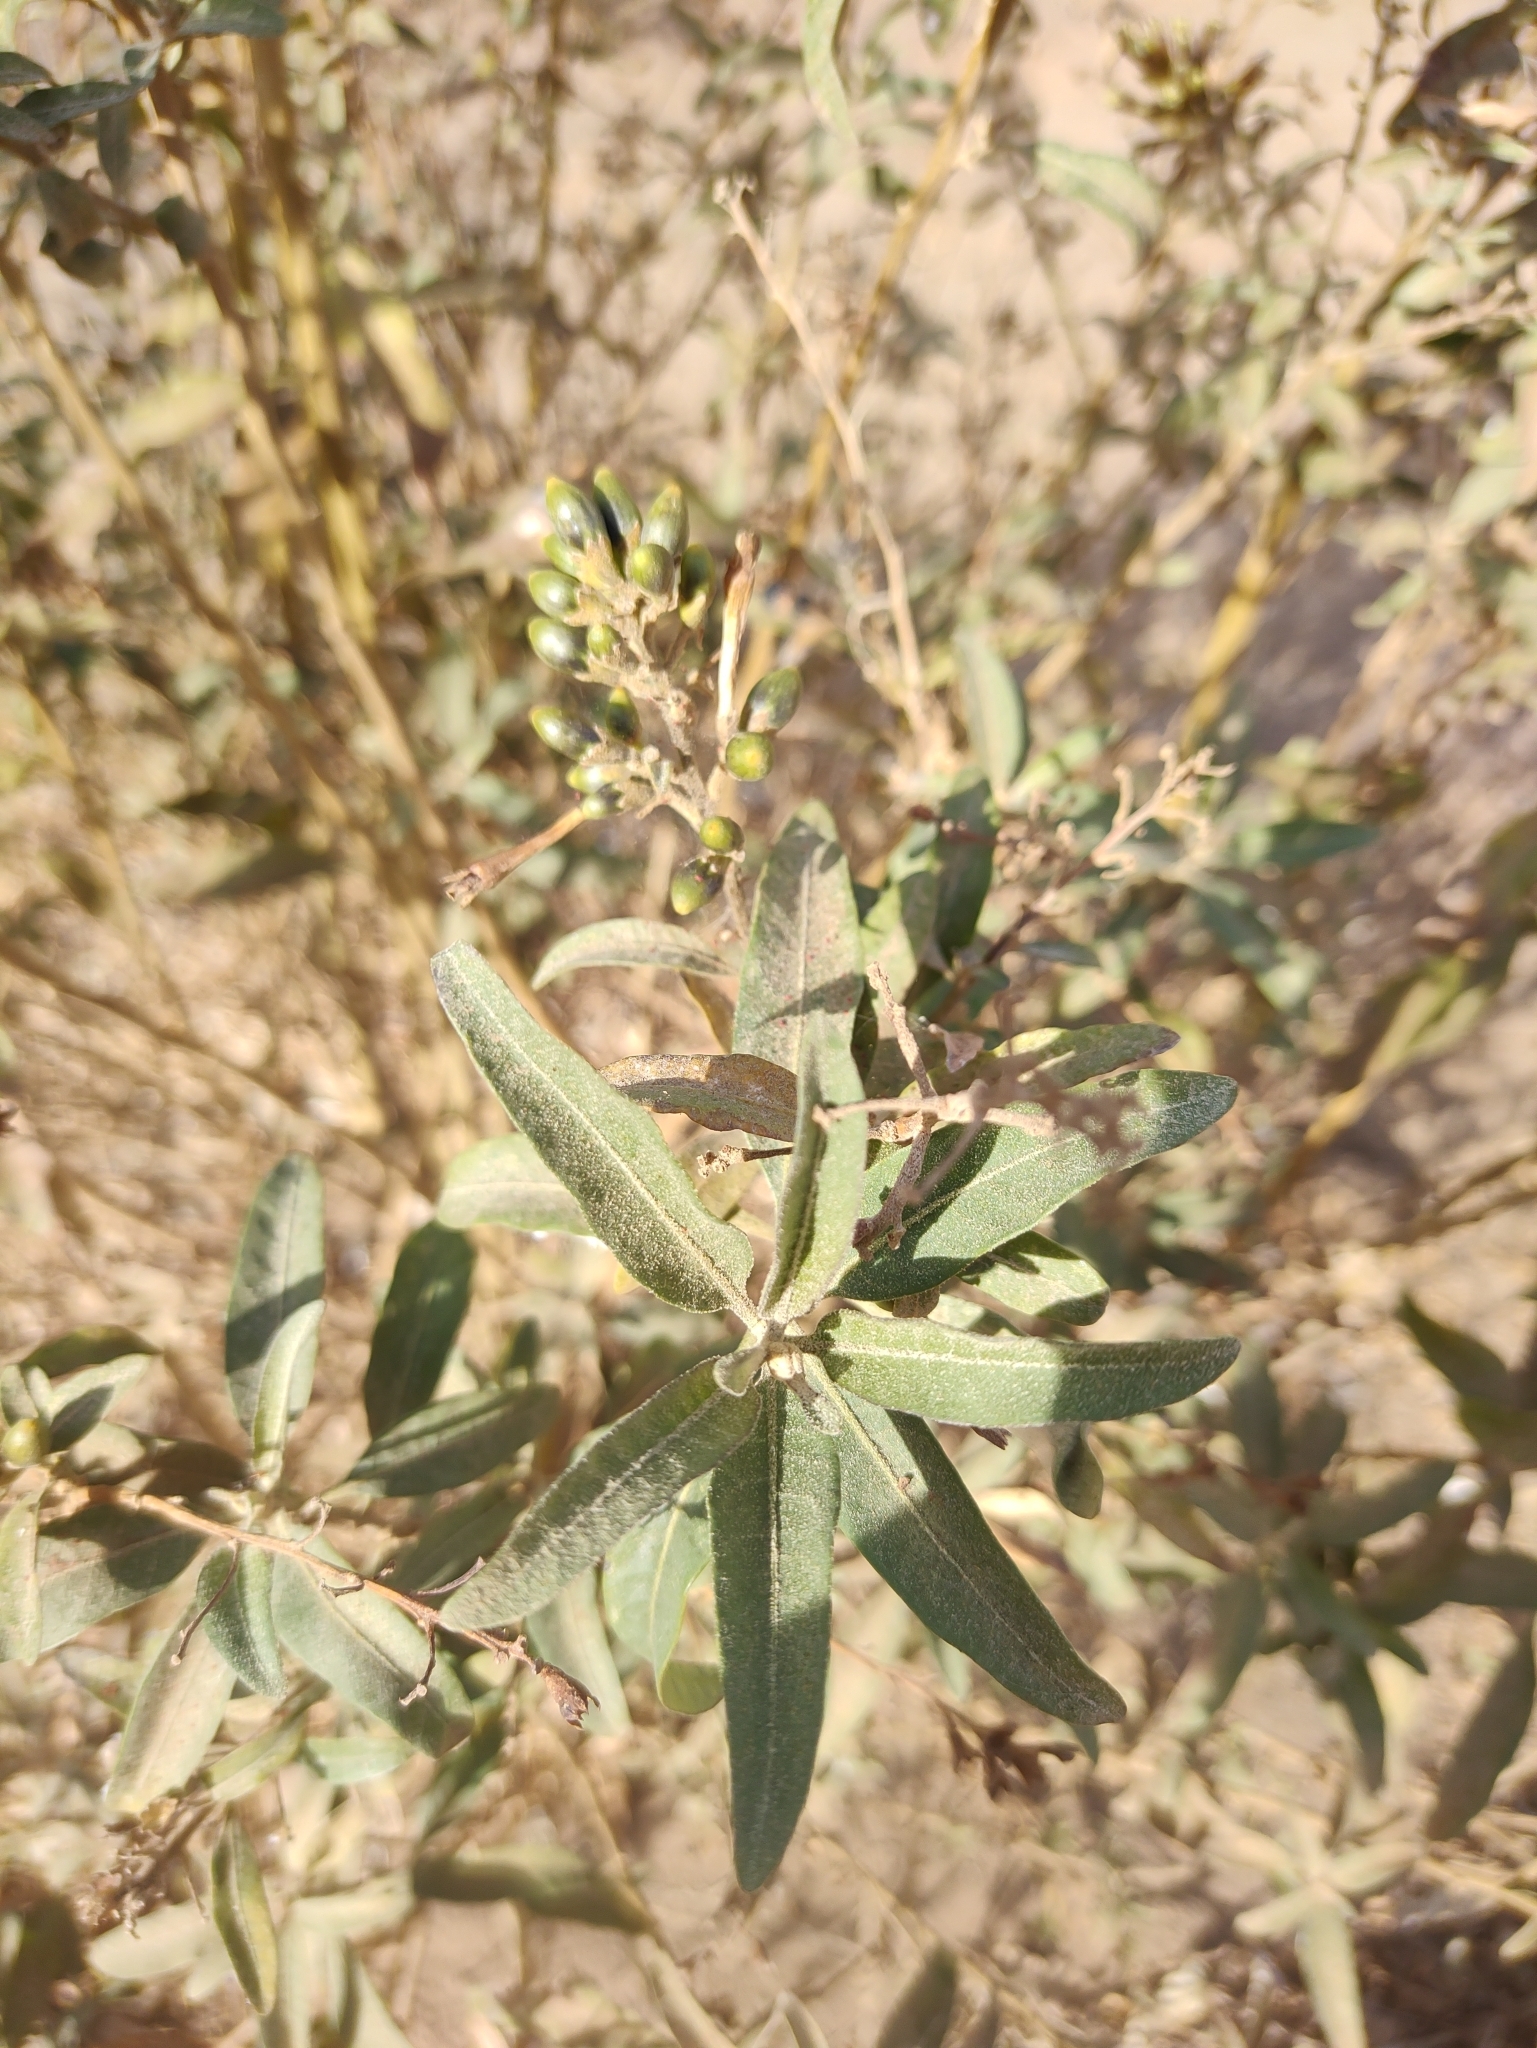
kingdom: Plantae
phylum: Tracheophyta
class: Magnoliopsida
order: Solanales
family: Solanaceae
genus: Cestrum
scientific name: Cestrum parqui
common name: Chilean cestrum
